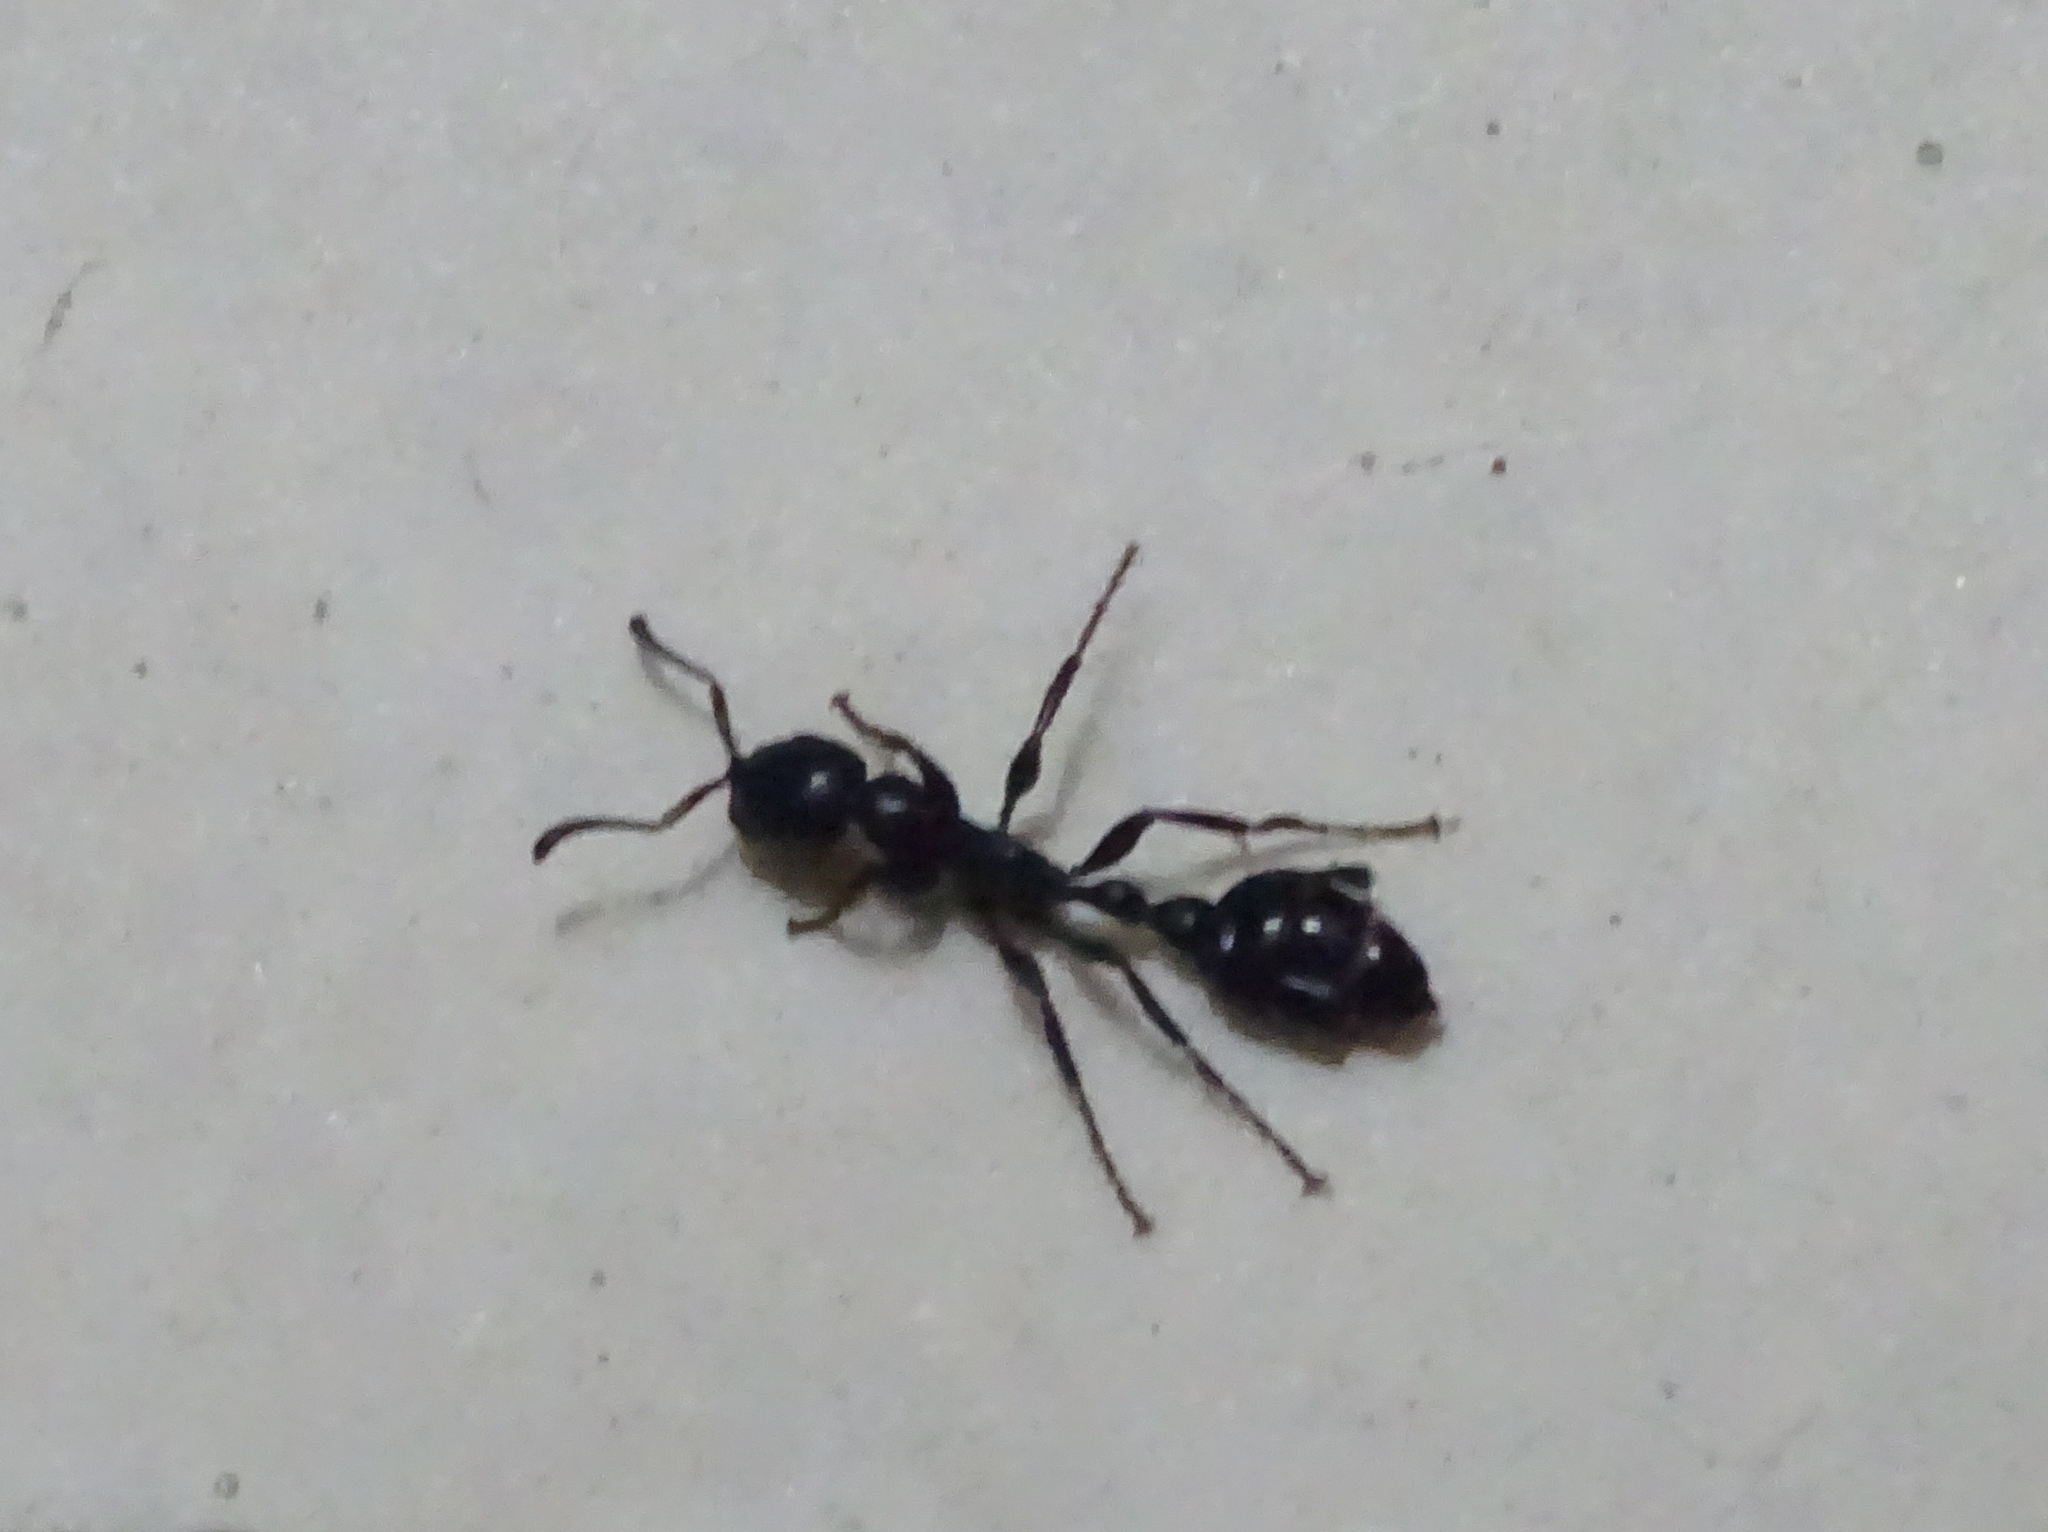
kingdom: Animalia
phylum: Arthropoda
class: Insecta
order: Hymenoptera
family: Formicidae
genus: Tetraponera
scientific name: Tetraponera nigra
